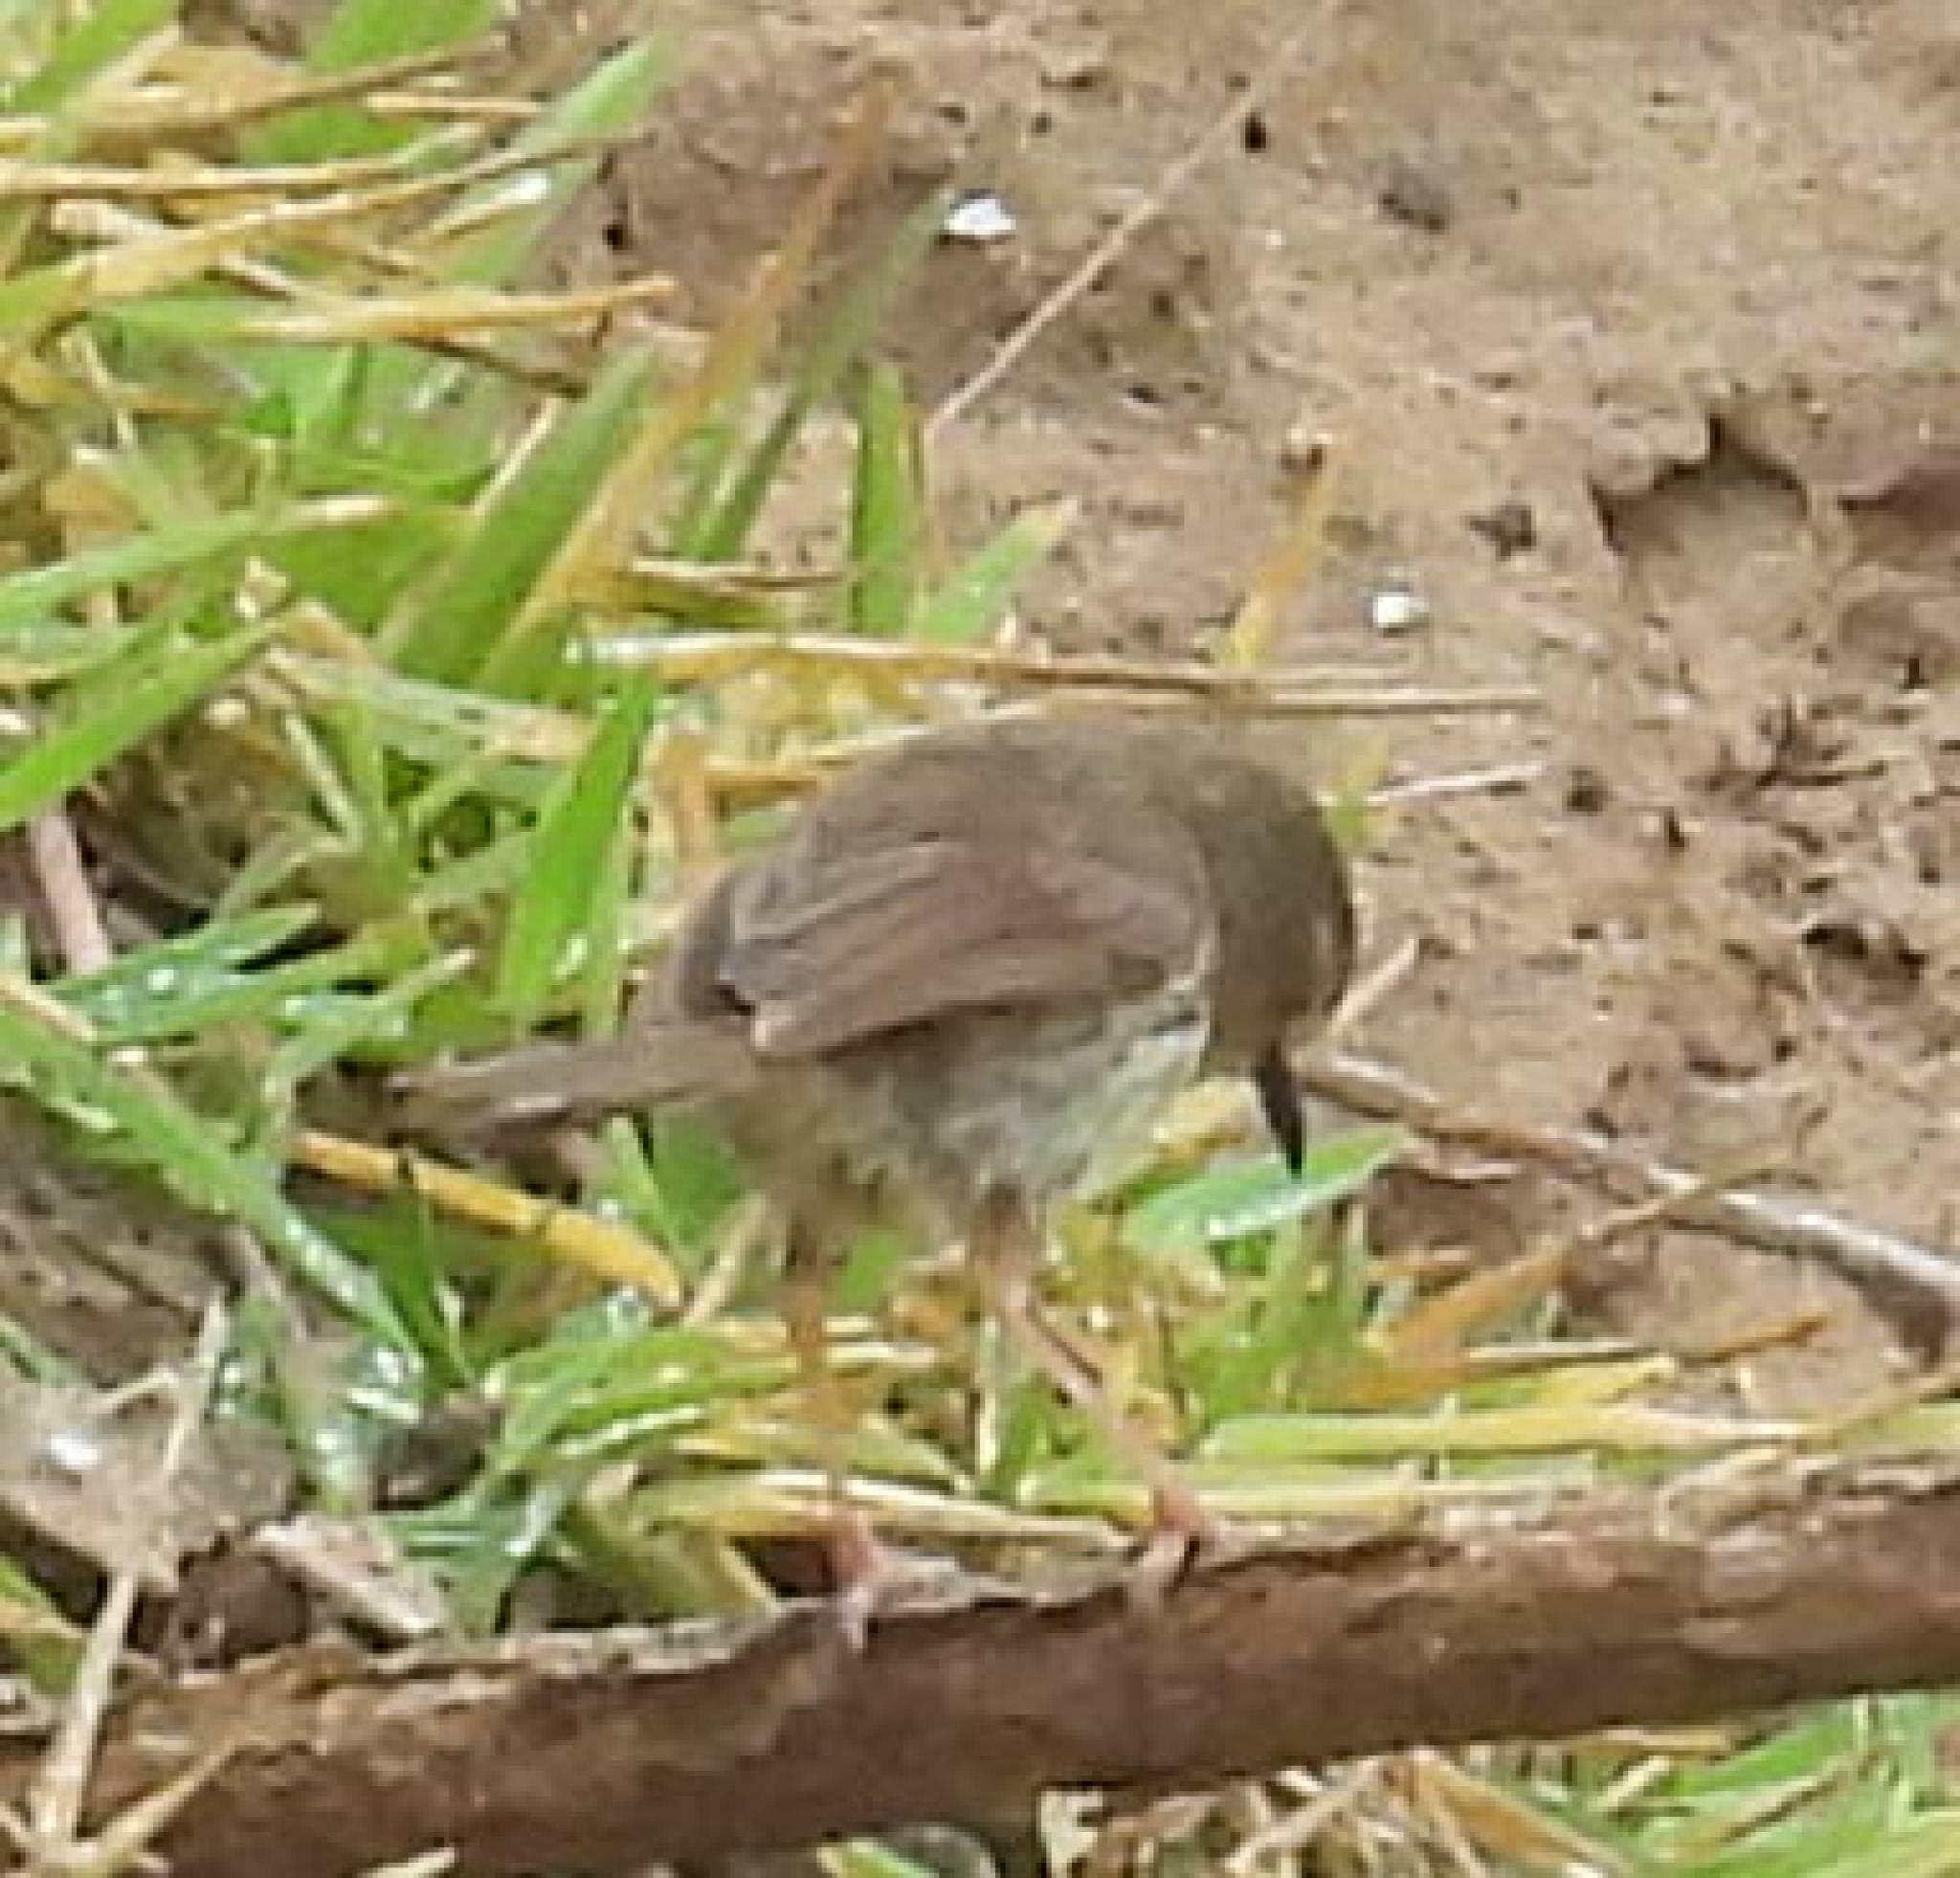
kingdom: Animalia
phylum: Chordata
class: Aves
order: Passeriformes
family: Cisticolidae
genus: Prinia
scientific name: Prinia maculosa
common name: Karoo prinia
